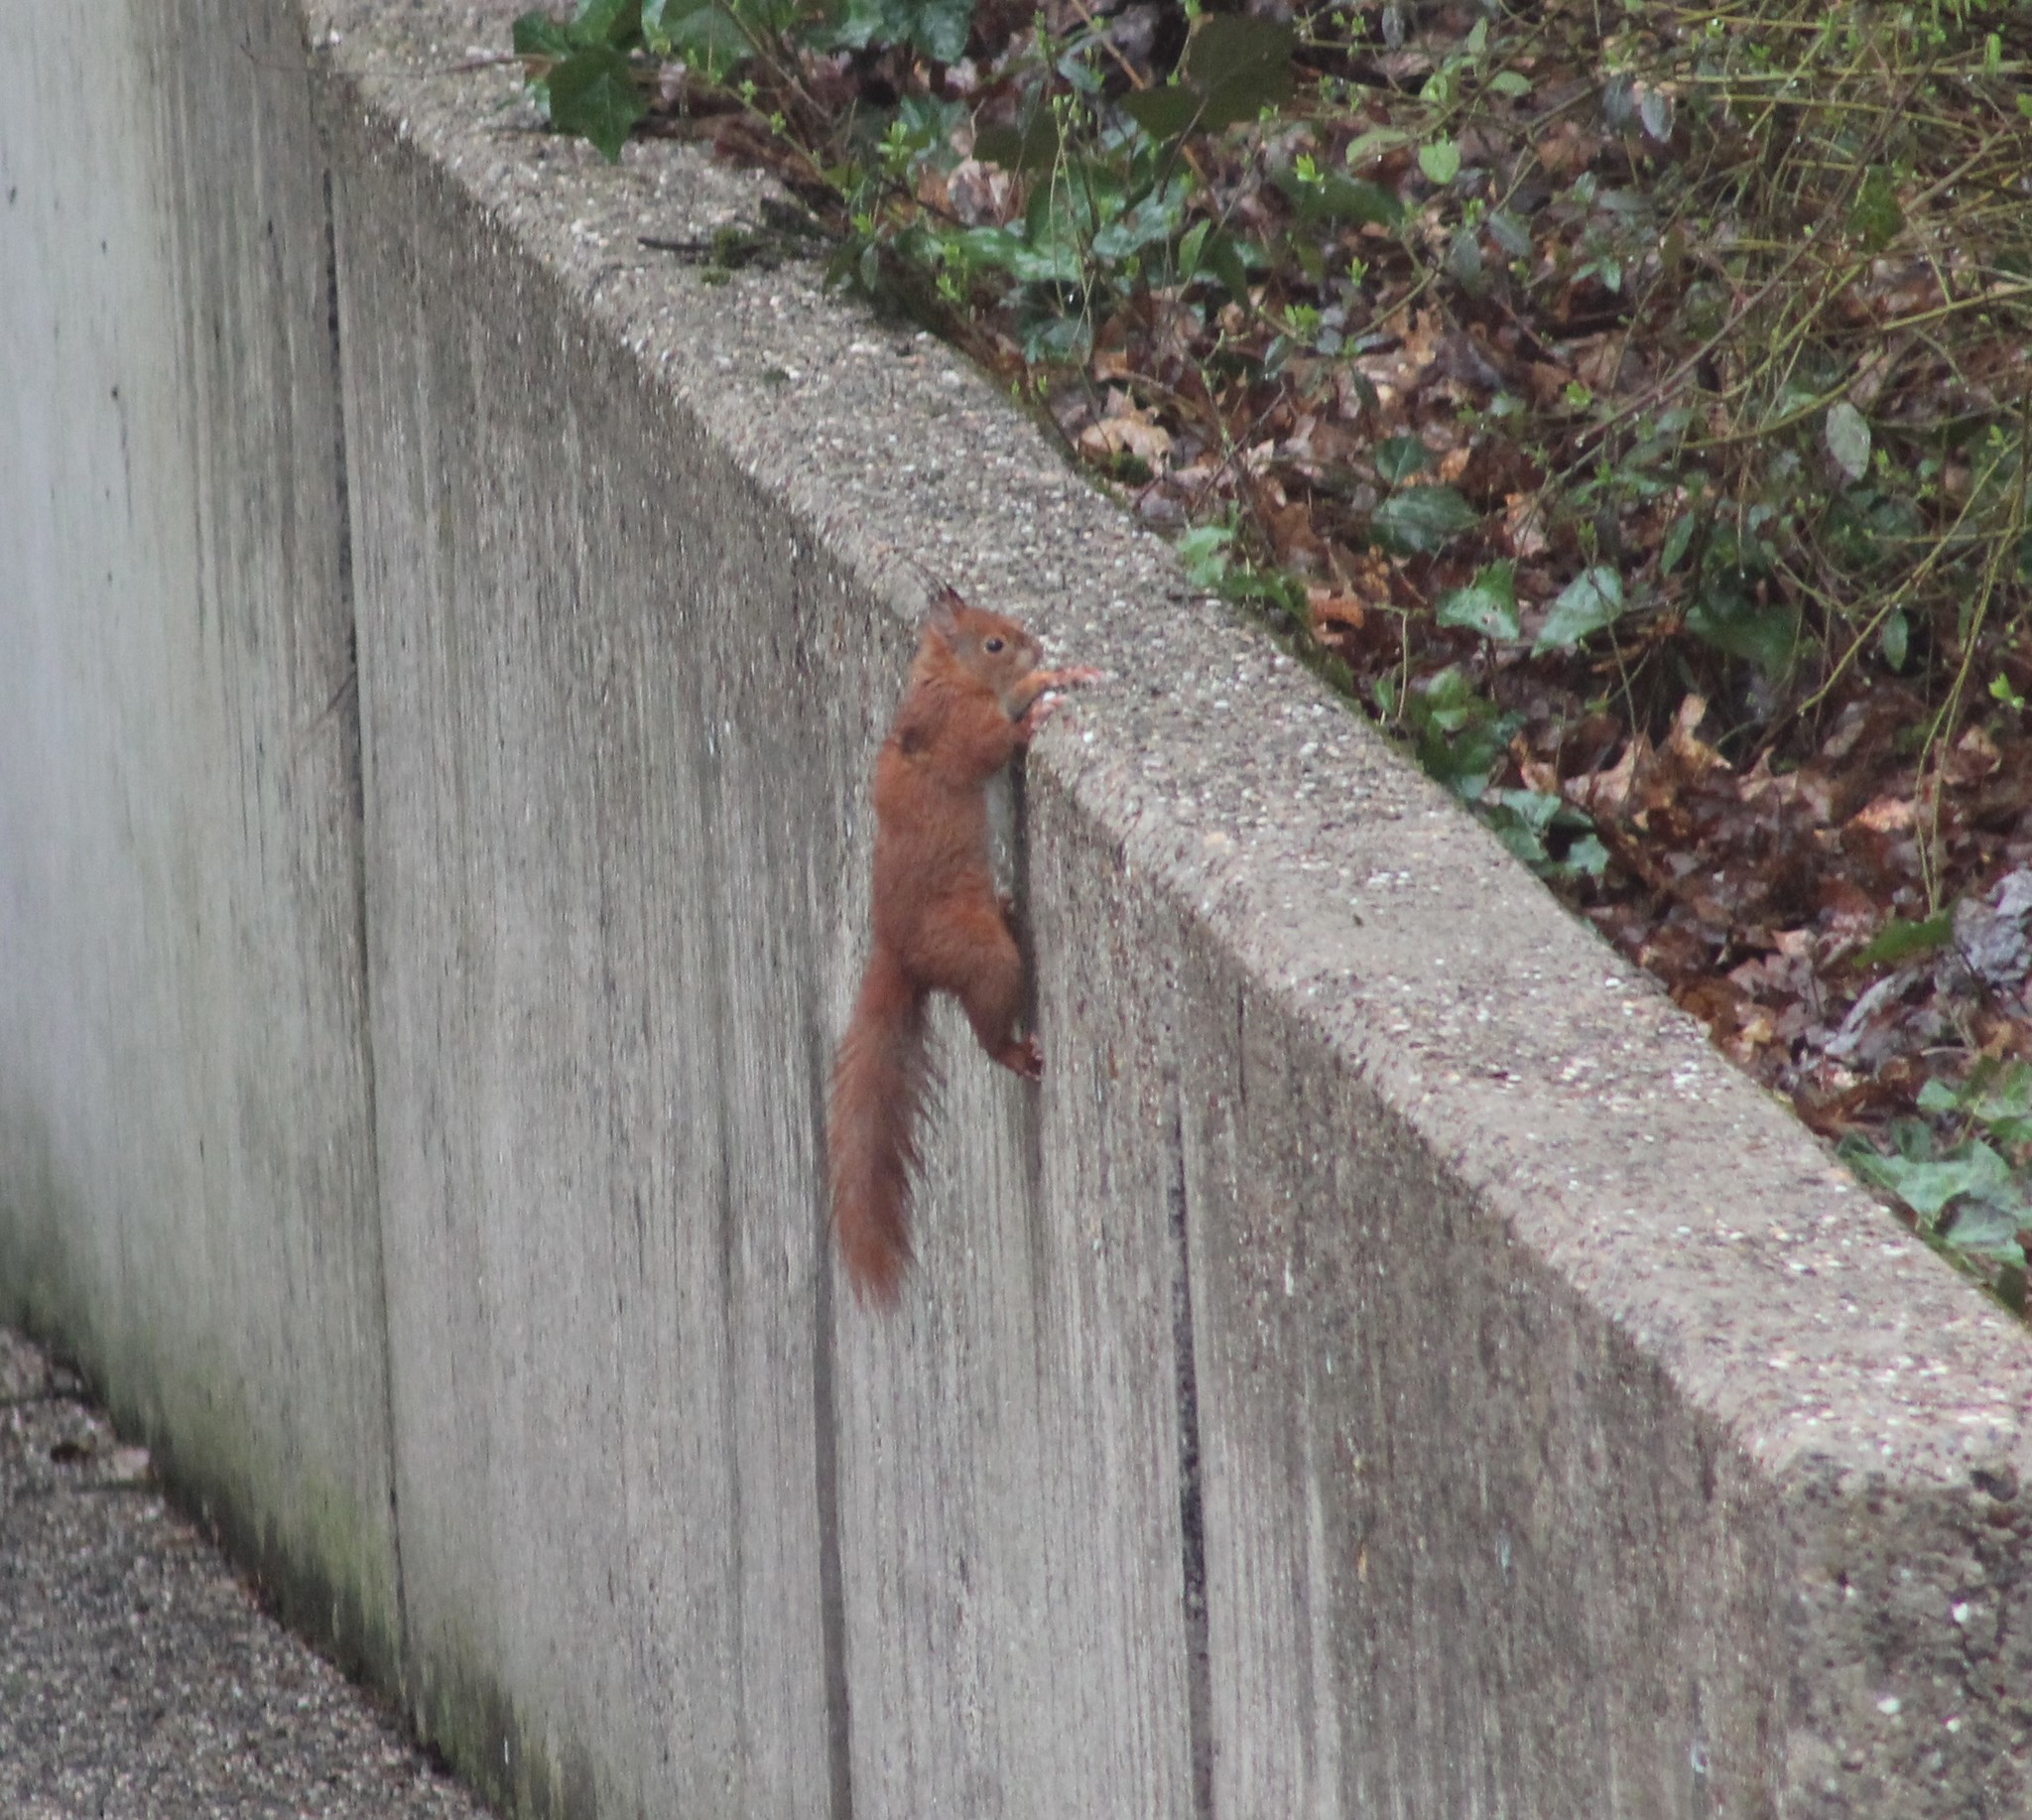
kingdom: Animalia
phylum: Chordata
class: Mammalia
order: Rodentia
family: Sciuridae
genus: Sciurus
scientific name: Sciurus vulgaris
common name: Eurasian red squirrel
